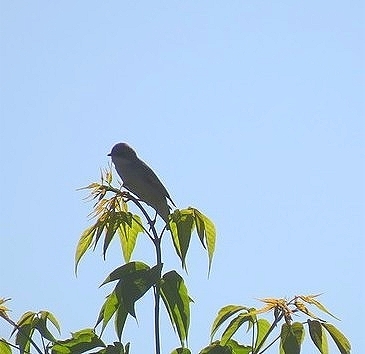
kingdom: Animalia
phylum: Chordata
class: Aves
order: Passeriformes
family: Sylviidae
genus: Sylvia
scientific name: Sylvia communis
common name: Common whitethroat
